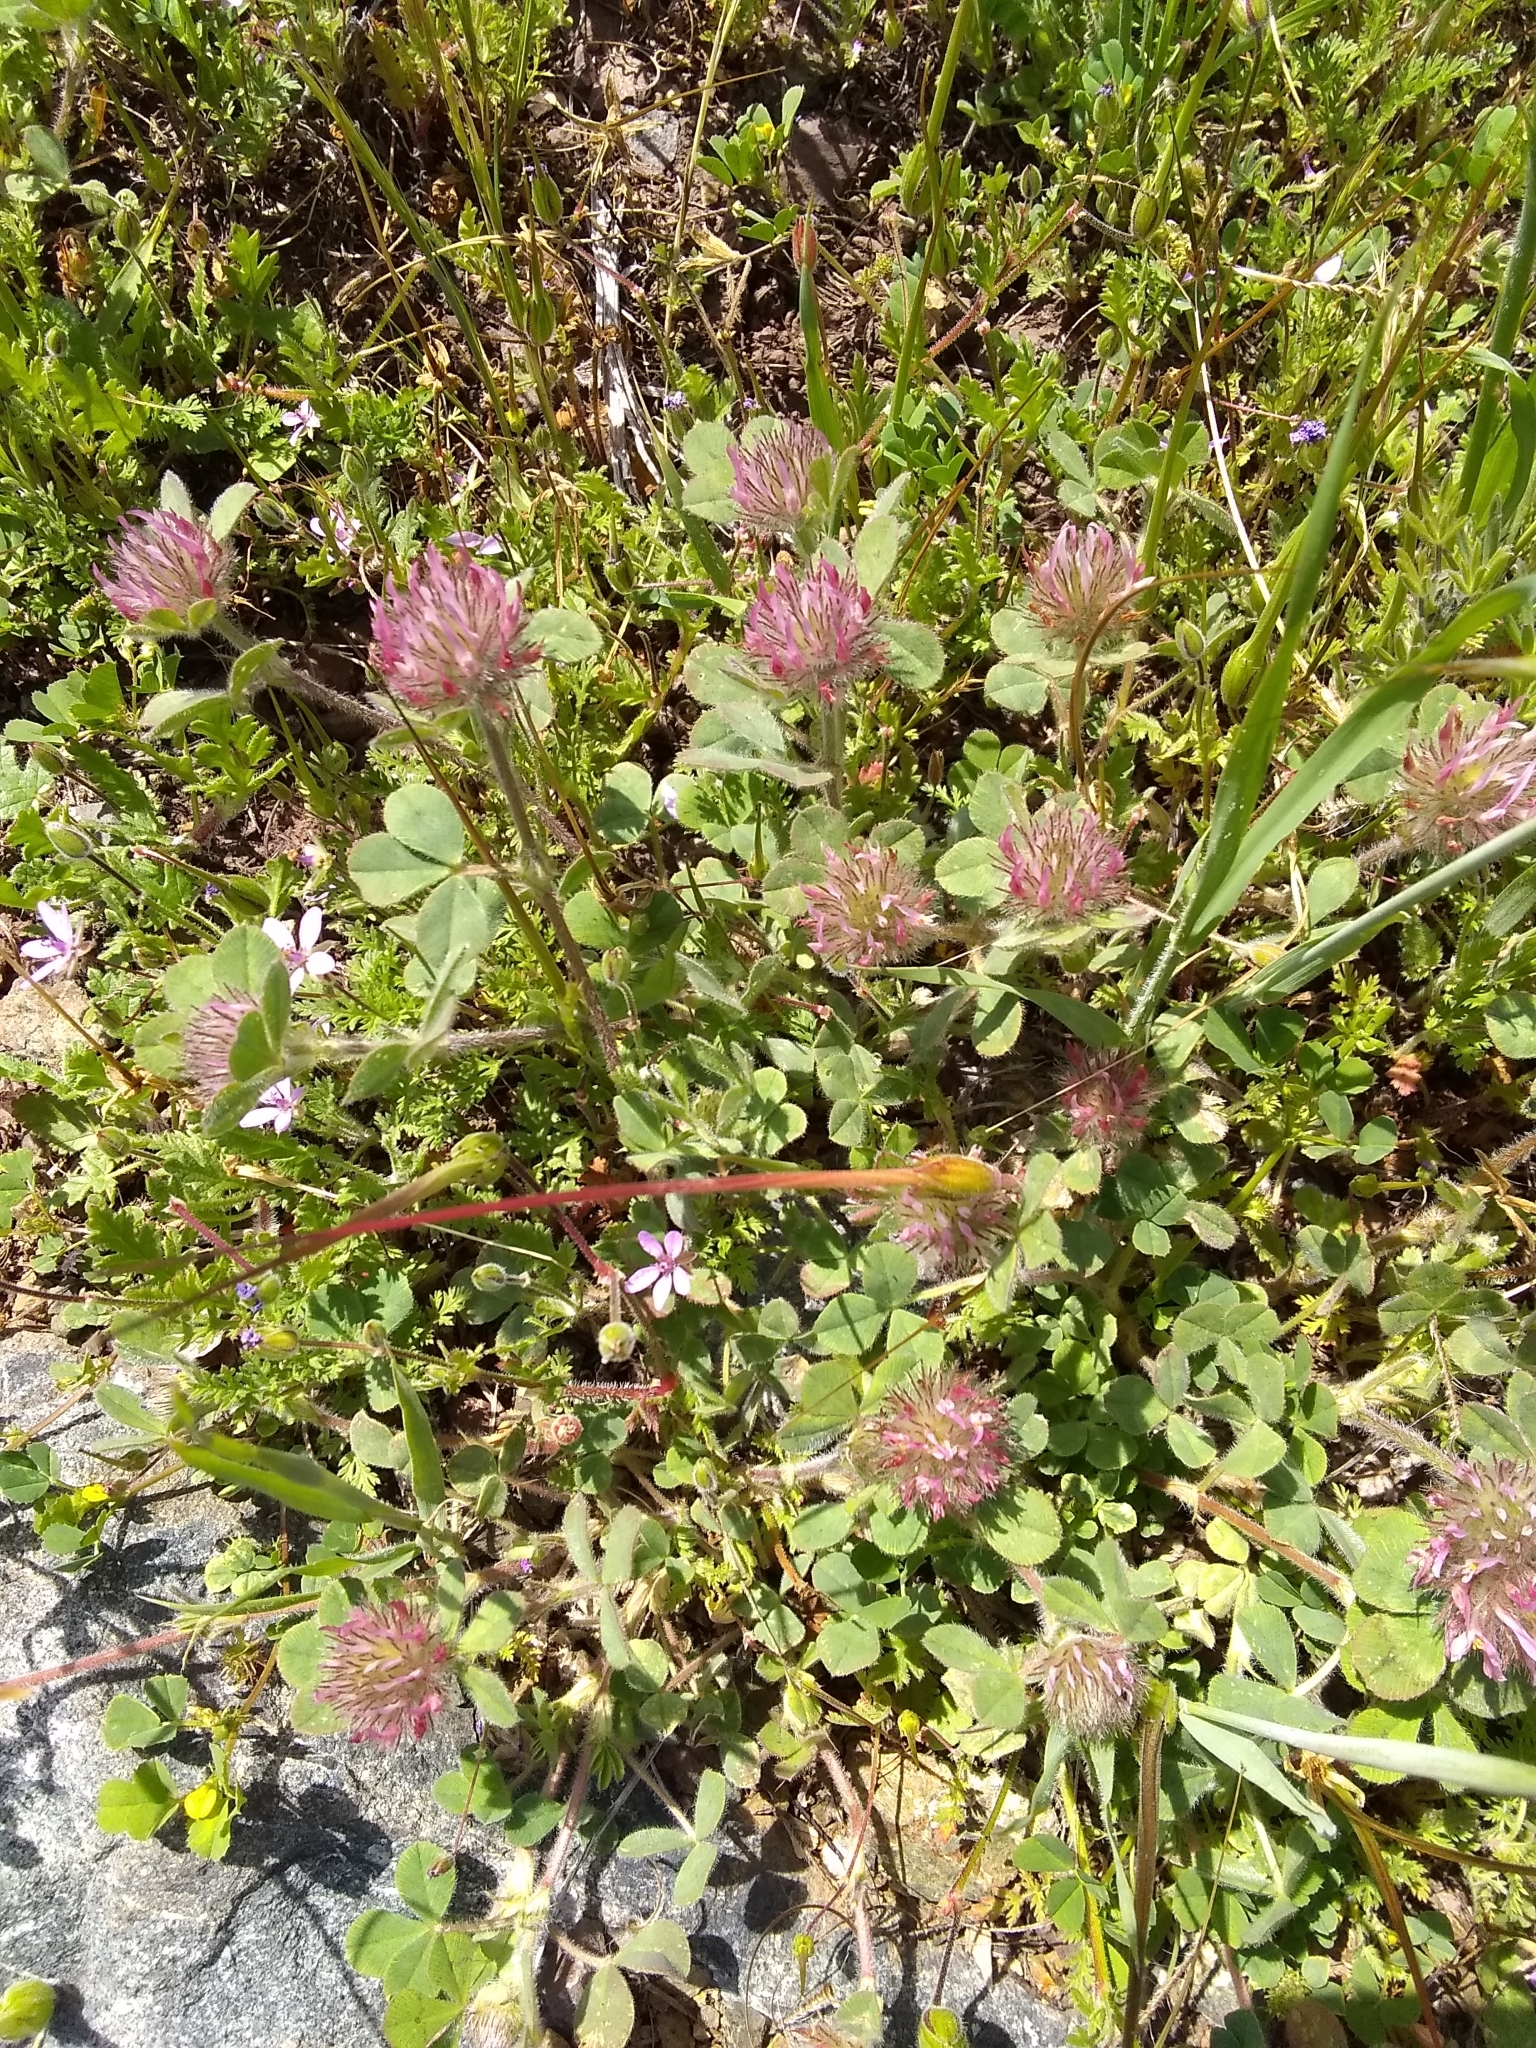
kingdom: Plantae
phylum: Tracheophyta
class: Magnoliopsida
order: Fabales
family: Fabaceae
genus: Trifolium
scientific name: Trifolium hirtum
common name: Rose clover
